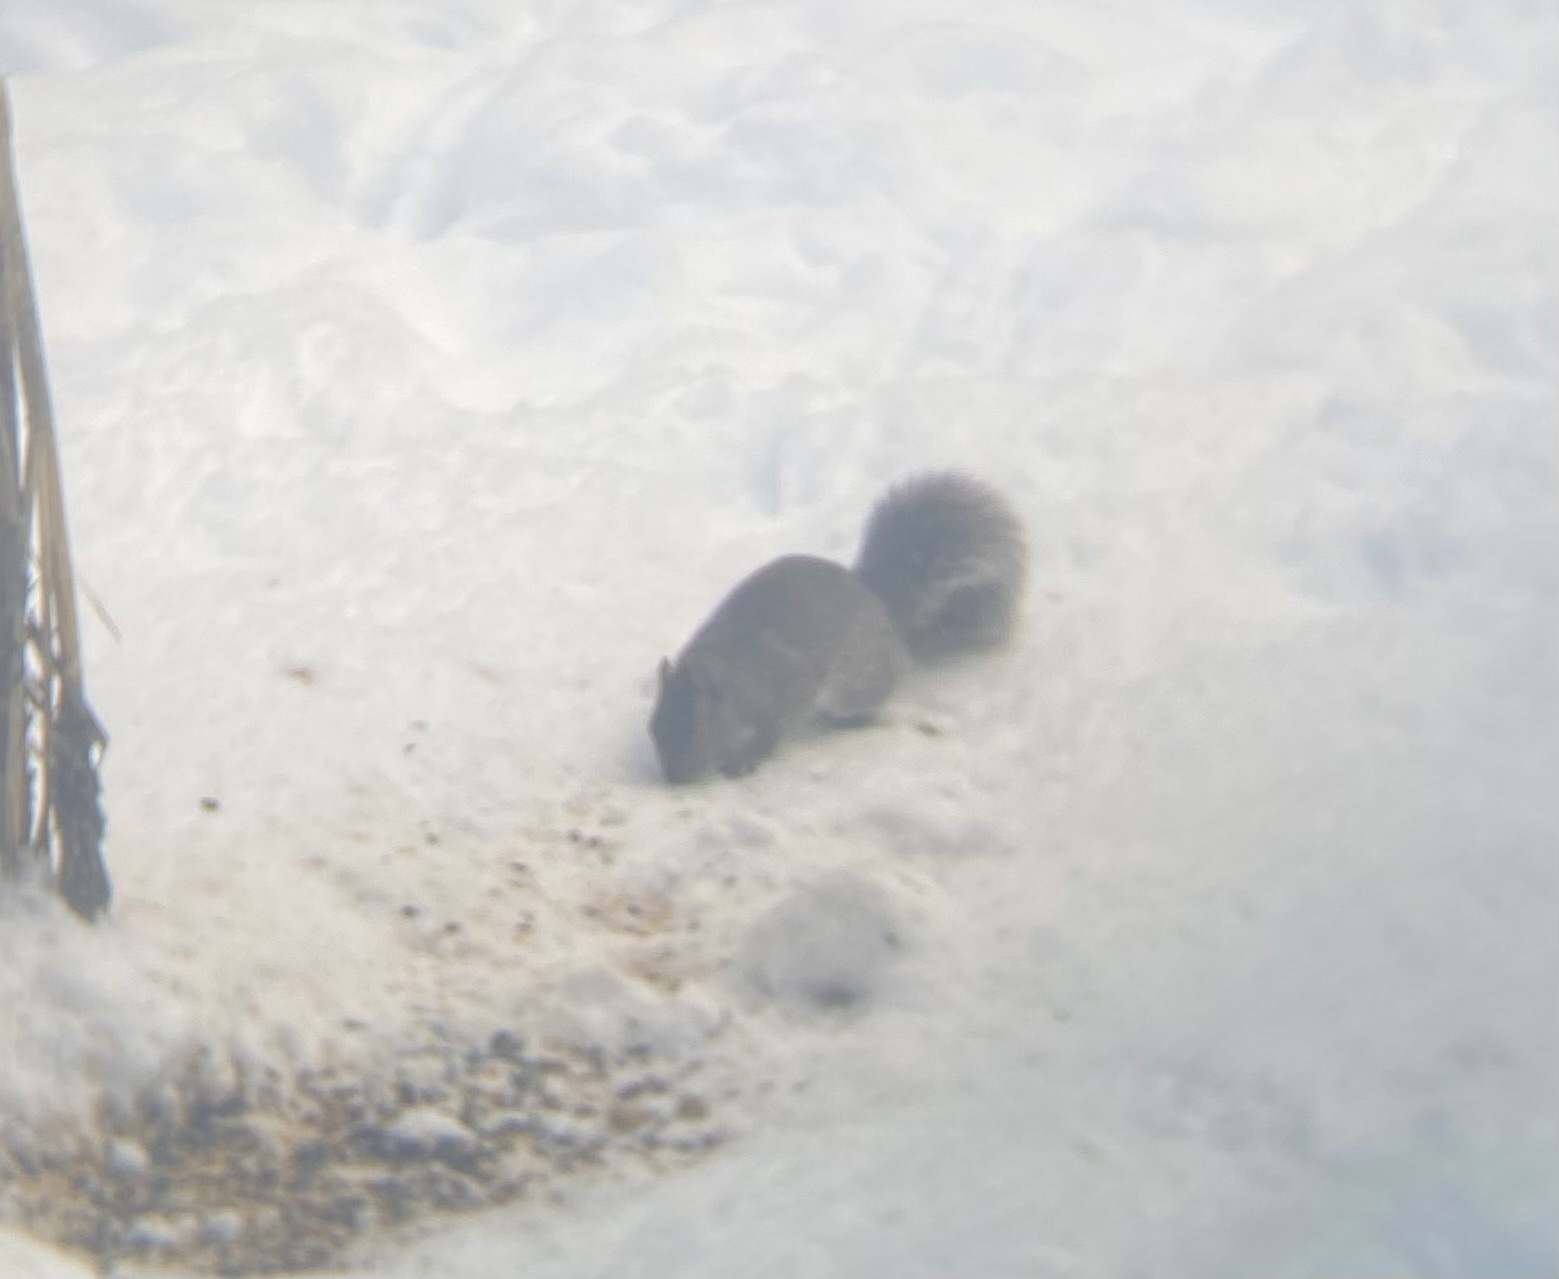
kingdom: Animalia
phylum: Chordata
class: Mammalia
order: Rodentia
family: Sciuridae
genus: Sciurus
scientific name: Sciurus carolinensis
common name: Eastern gray squirrel
